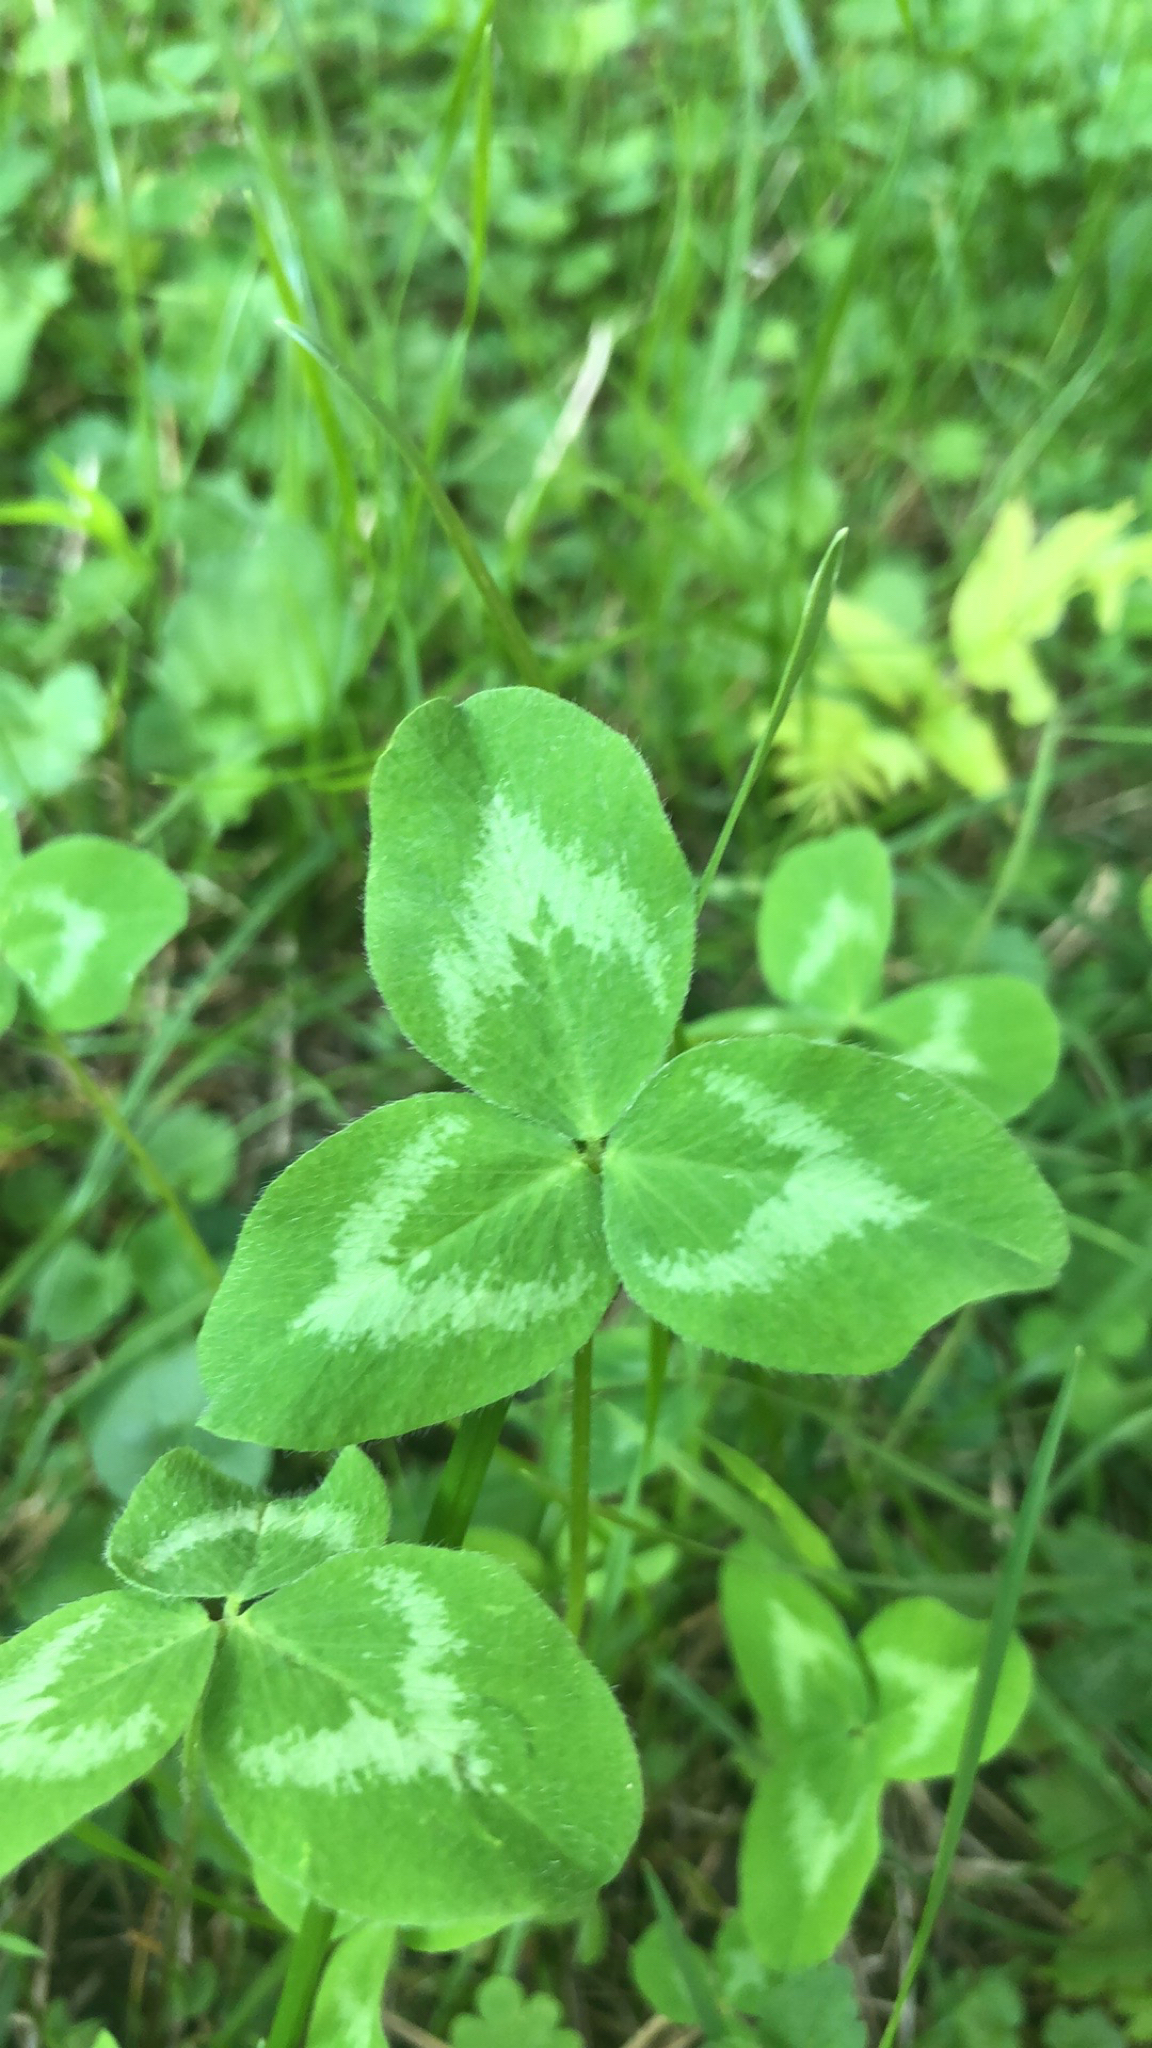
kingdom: Plantae
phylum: Tracheophyta
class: Magnoliopsida
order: Fabales
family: Fabaceae
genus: Trifolium
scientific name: Trifolium pratense
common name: Red clover
